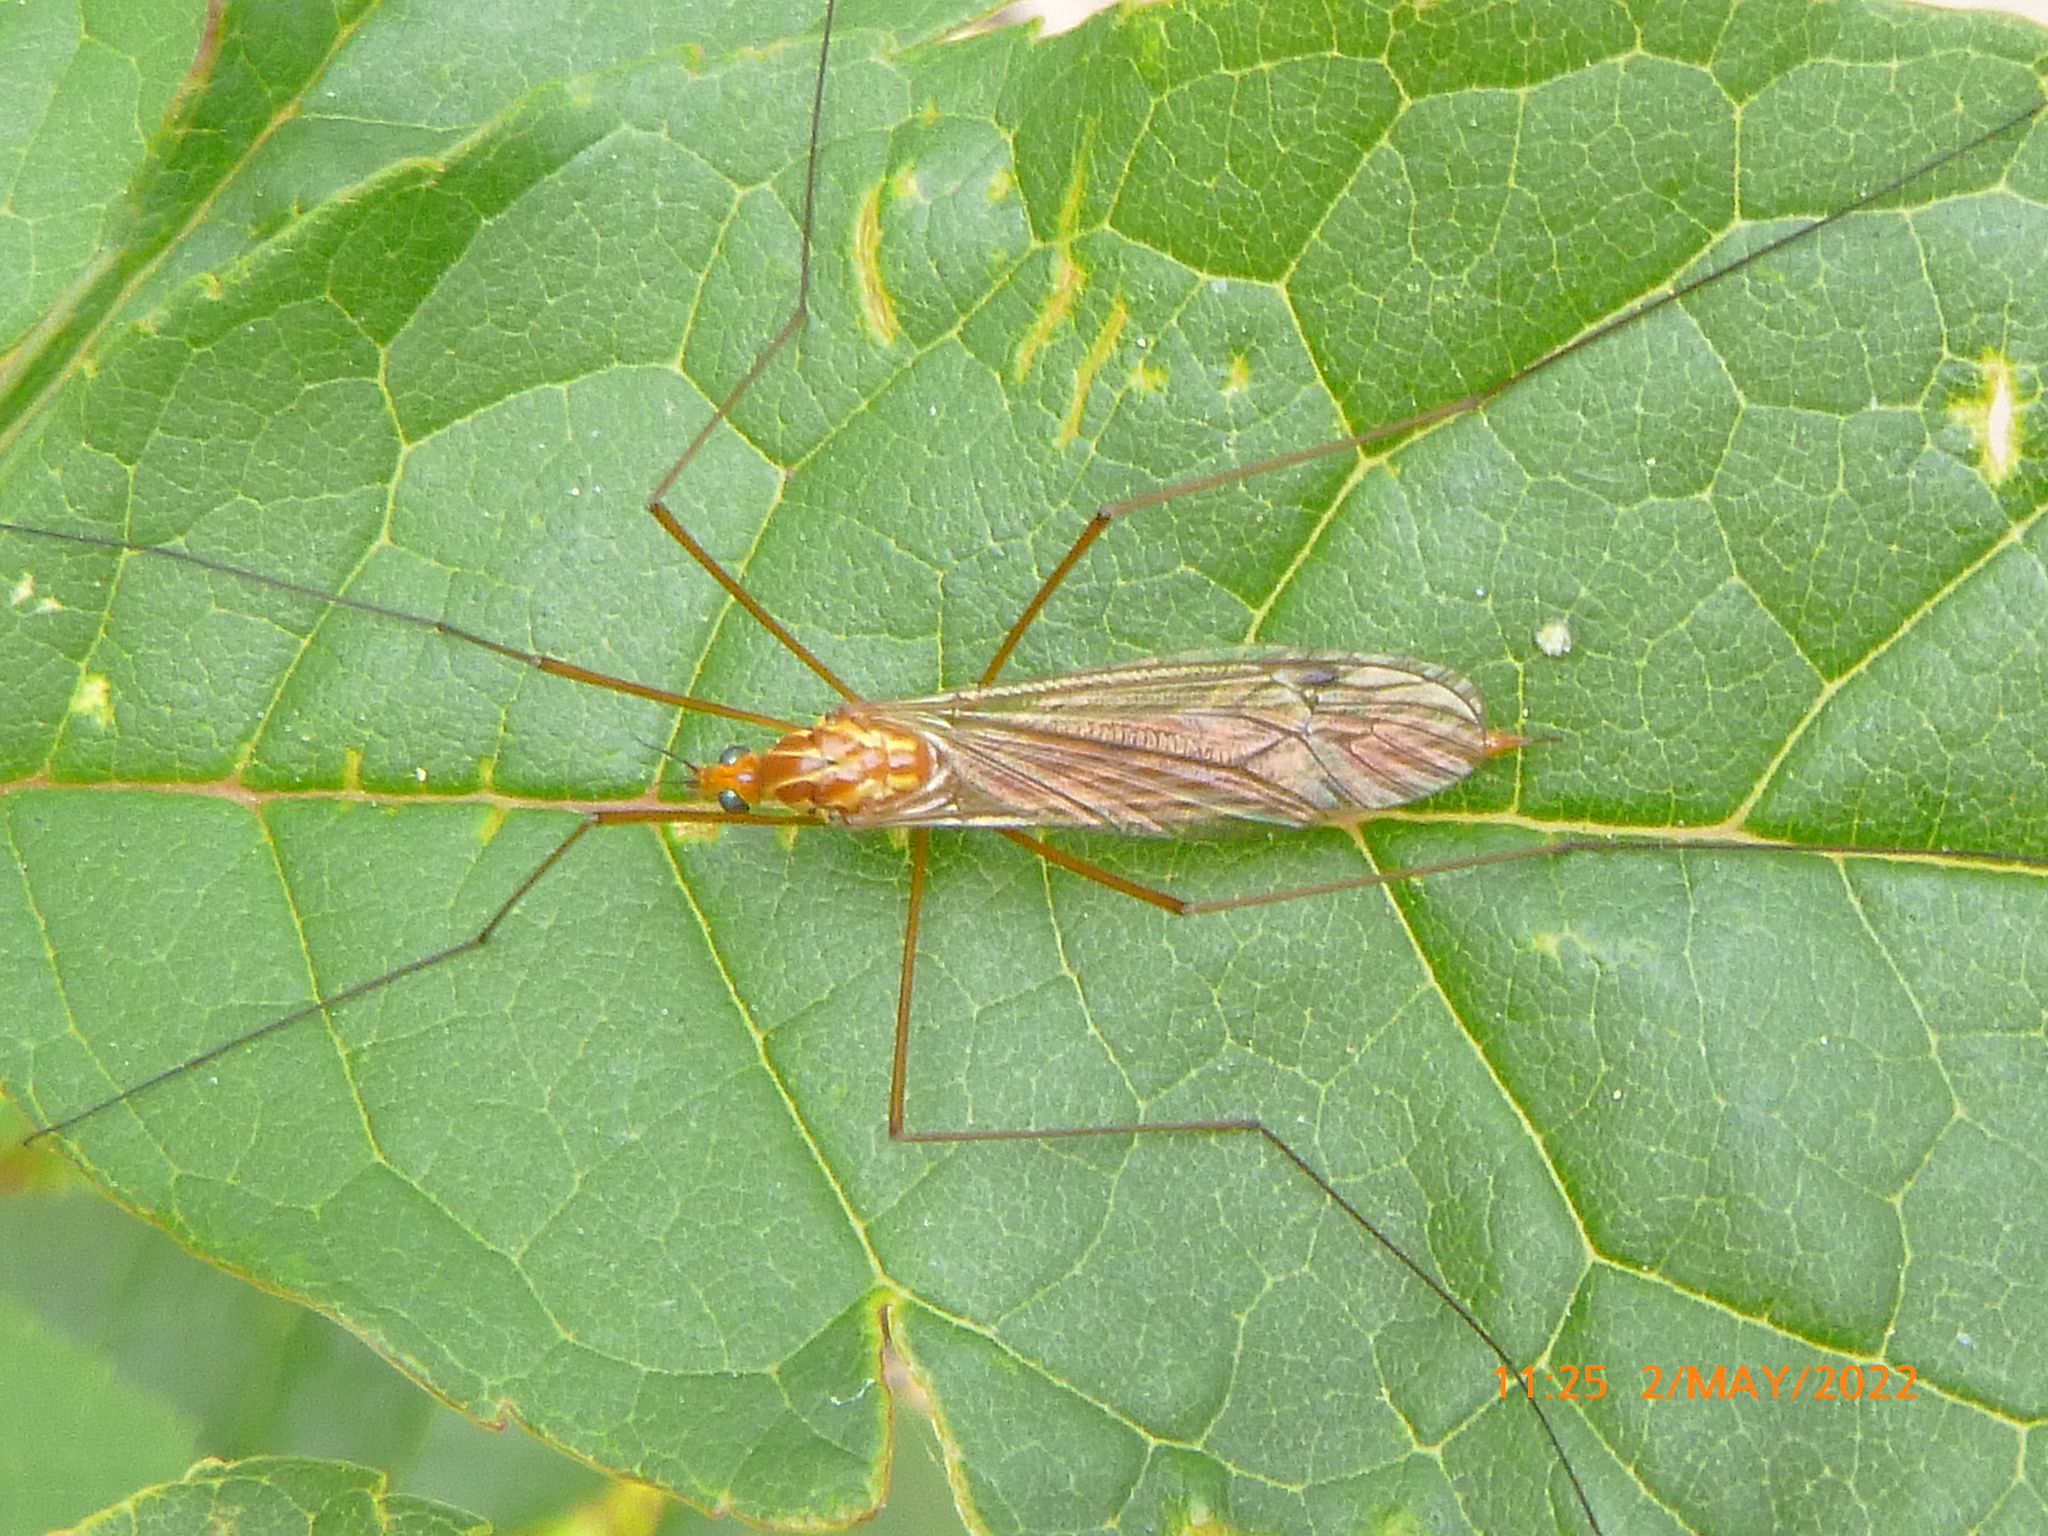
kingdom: Animalia
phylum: Arthropoda
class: Insecta
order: Diptera
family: Tipulidae
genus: Nephrotoma
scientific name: Nephrotoma
